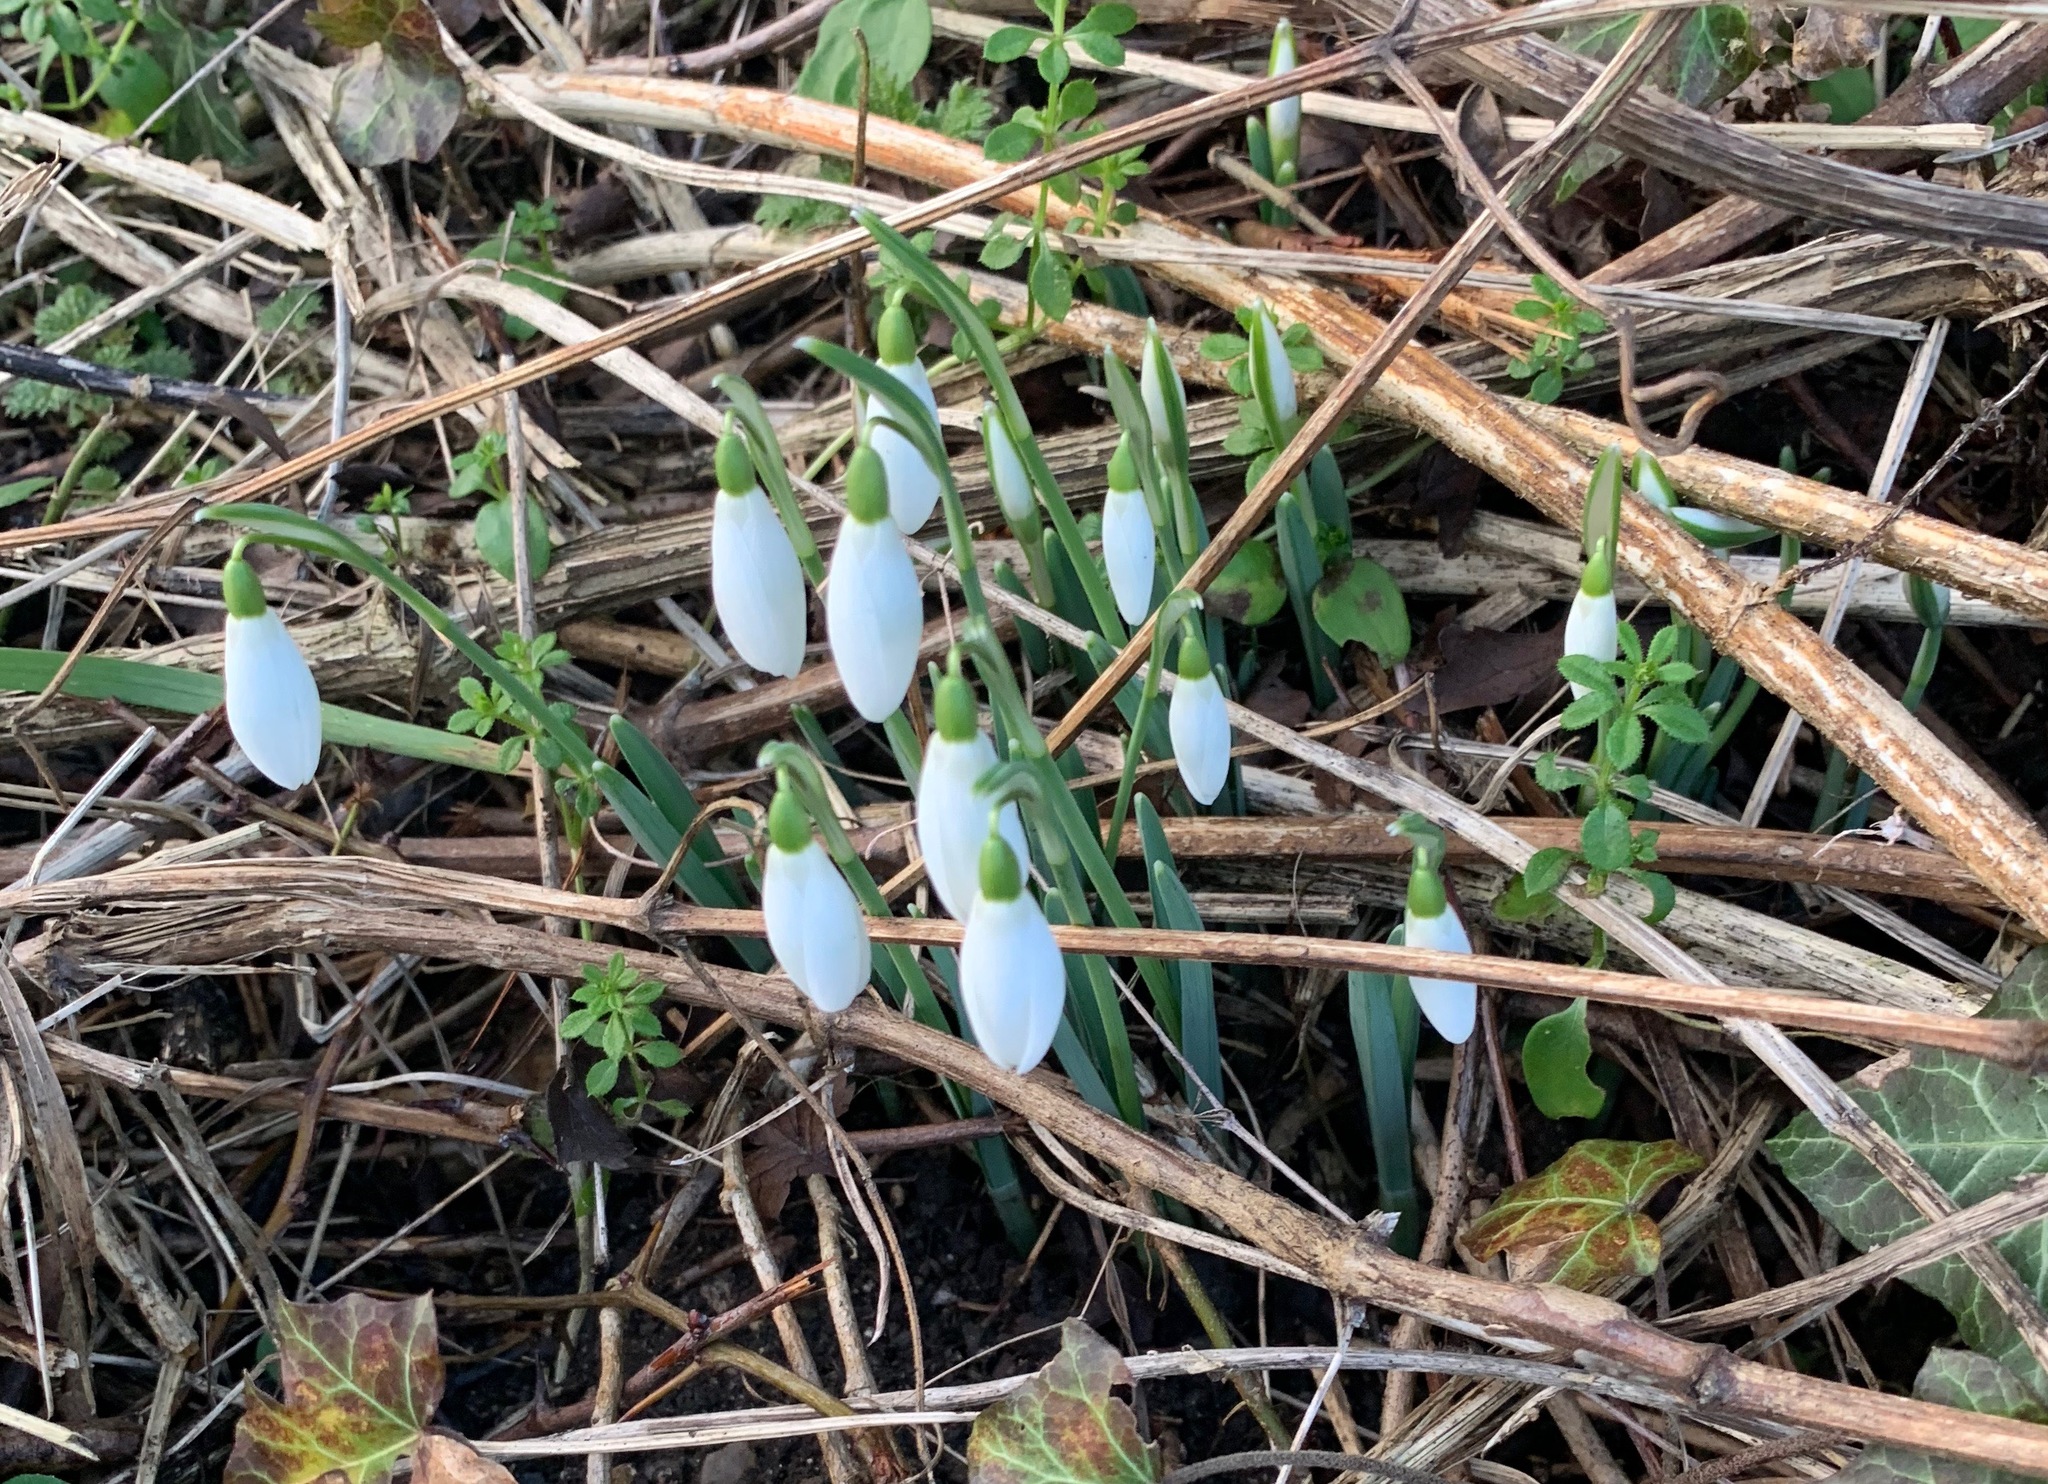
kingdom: Plantae
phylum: Tracheophyta
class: Liliopsida
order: Asparagales
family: Amaryllidaceae
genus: Galanthus
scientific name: Galanthus nivalis
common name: Snowdrop
